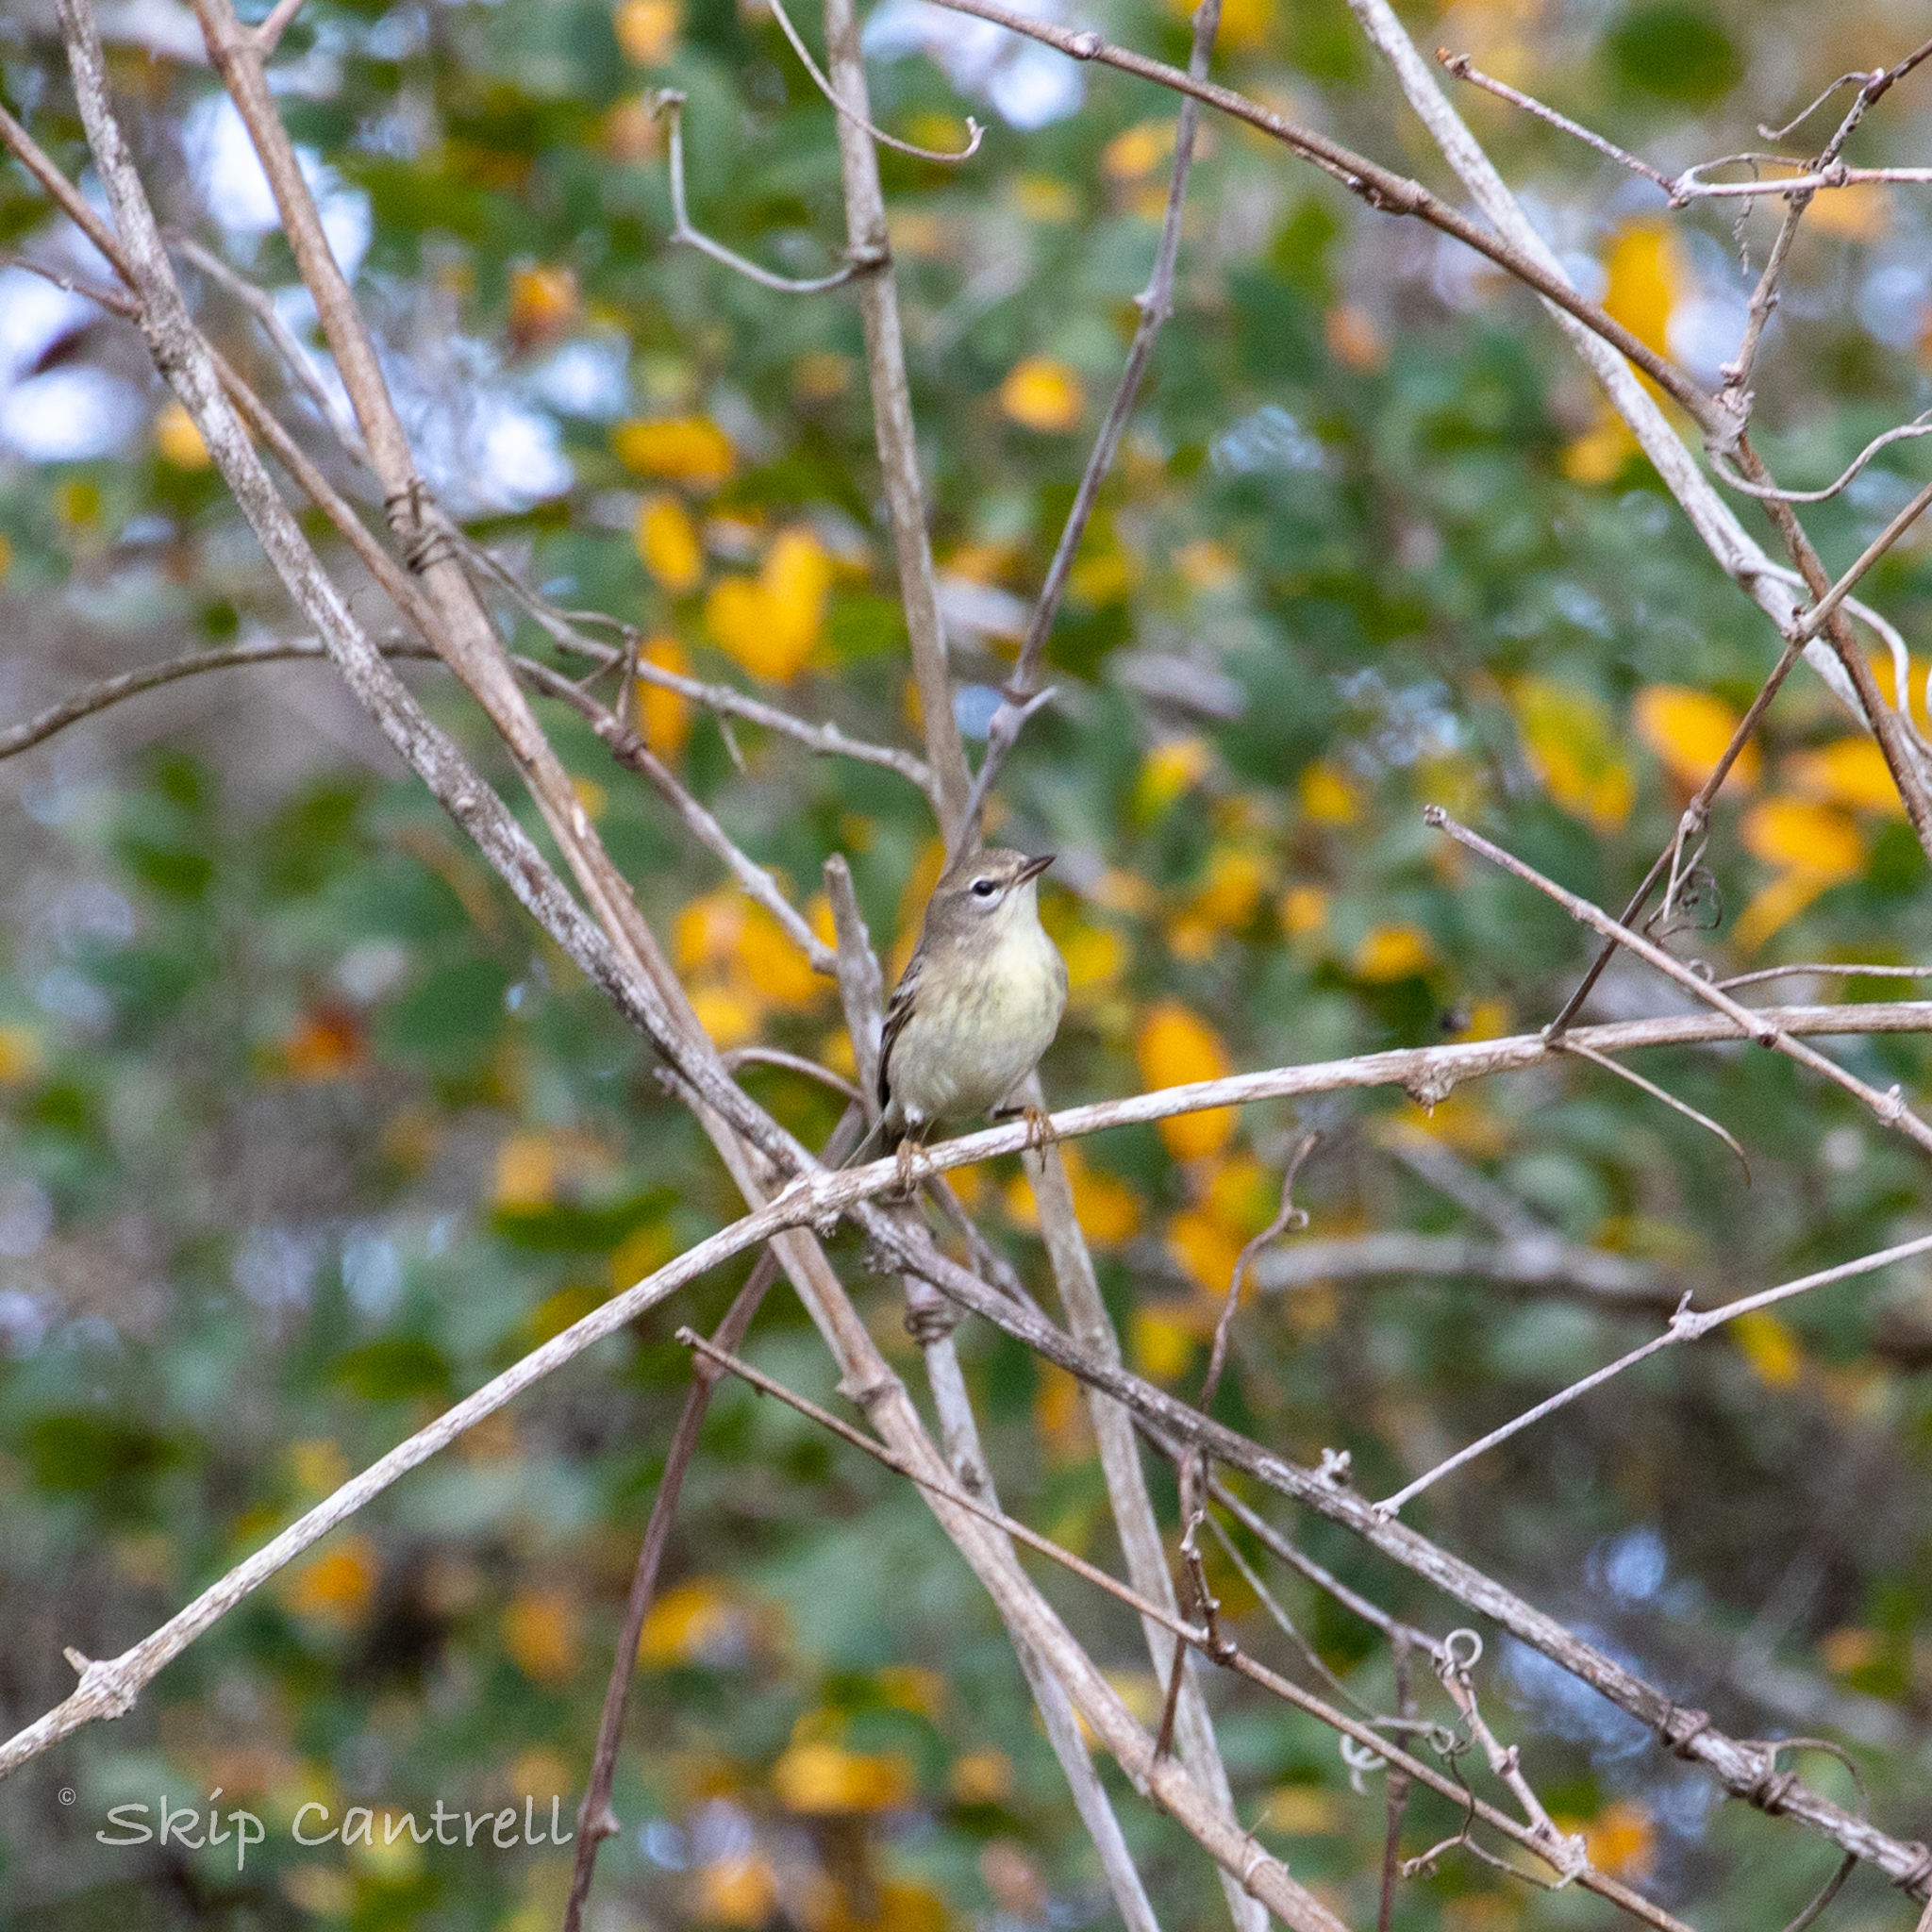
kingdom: Animalia
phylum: Chordata
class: Aves
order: Passeriformes
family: Parulidae
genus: Setophaga
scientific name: Setophaga pinus
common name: Pine warbler
